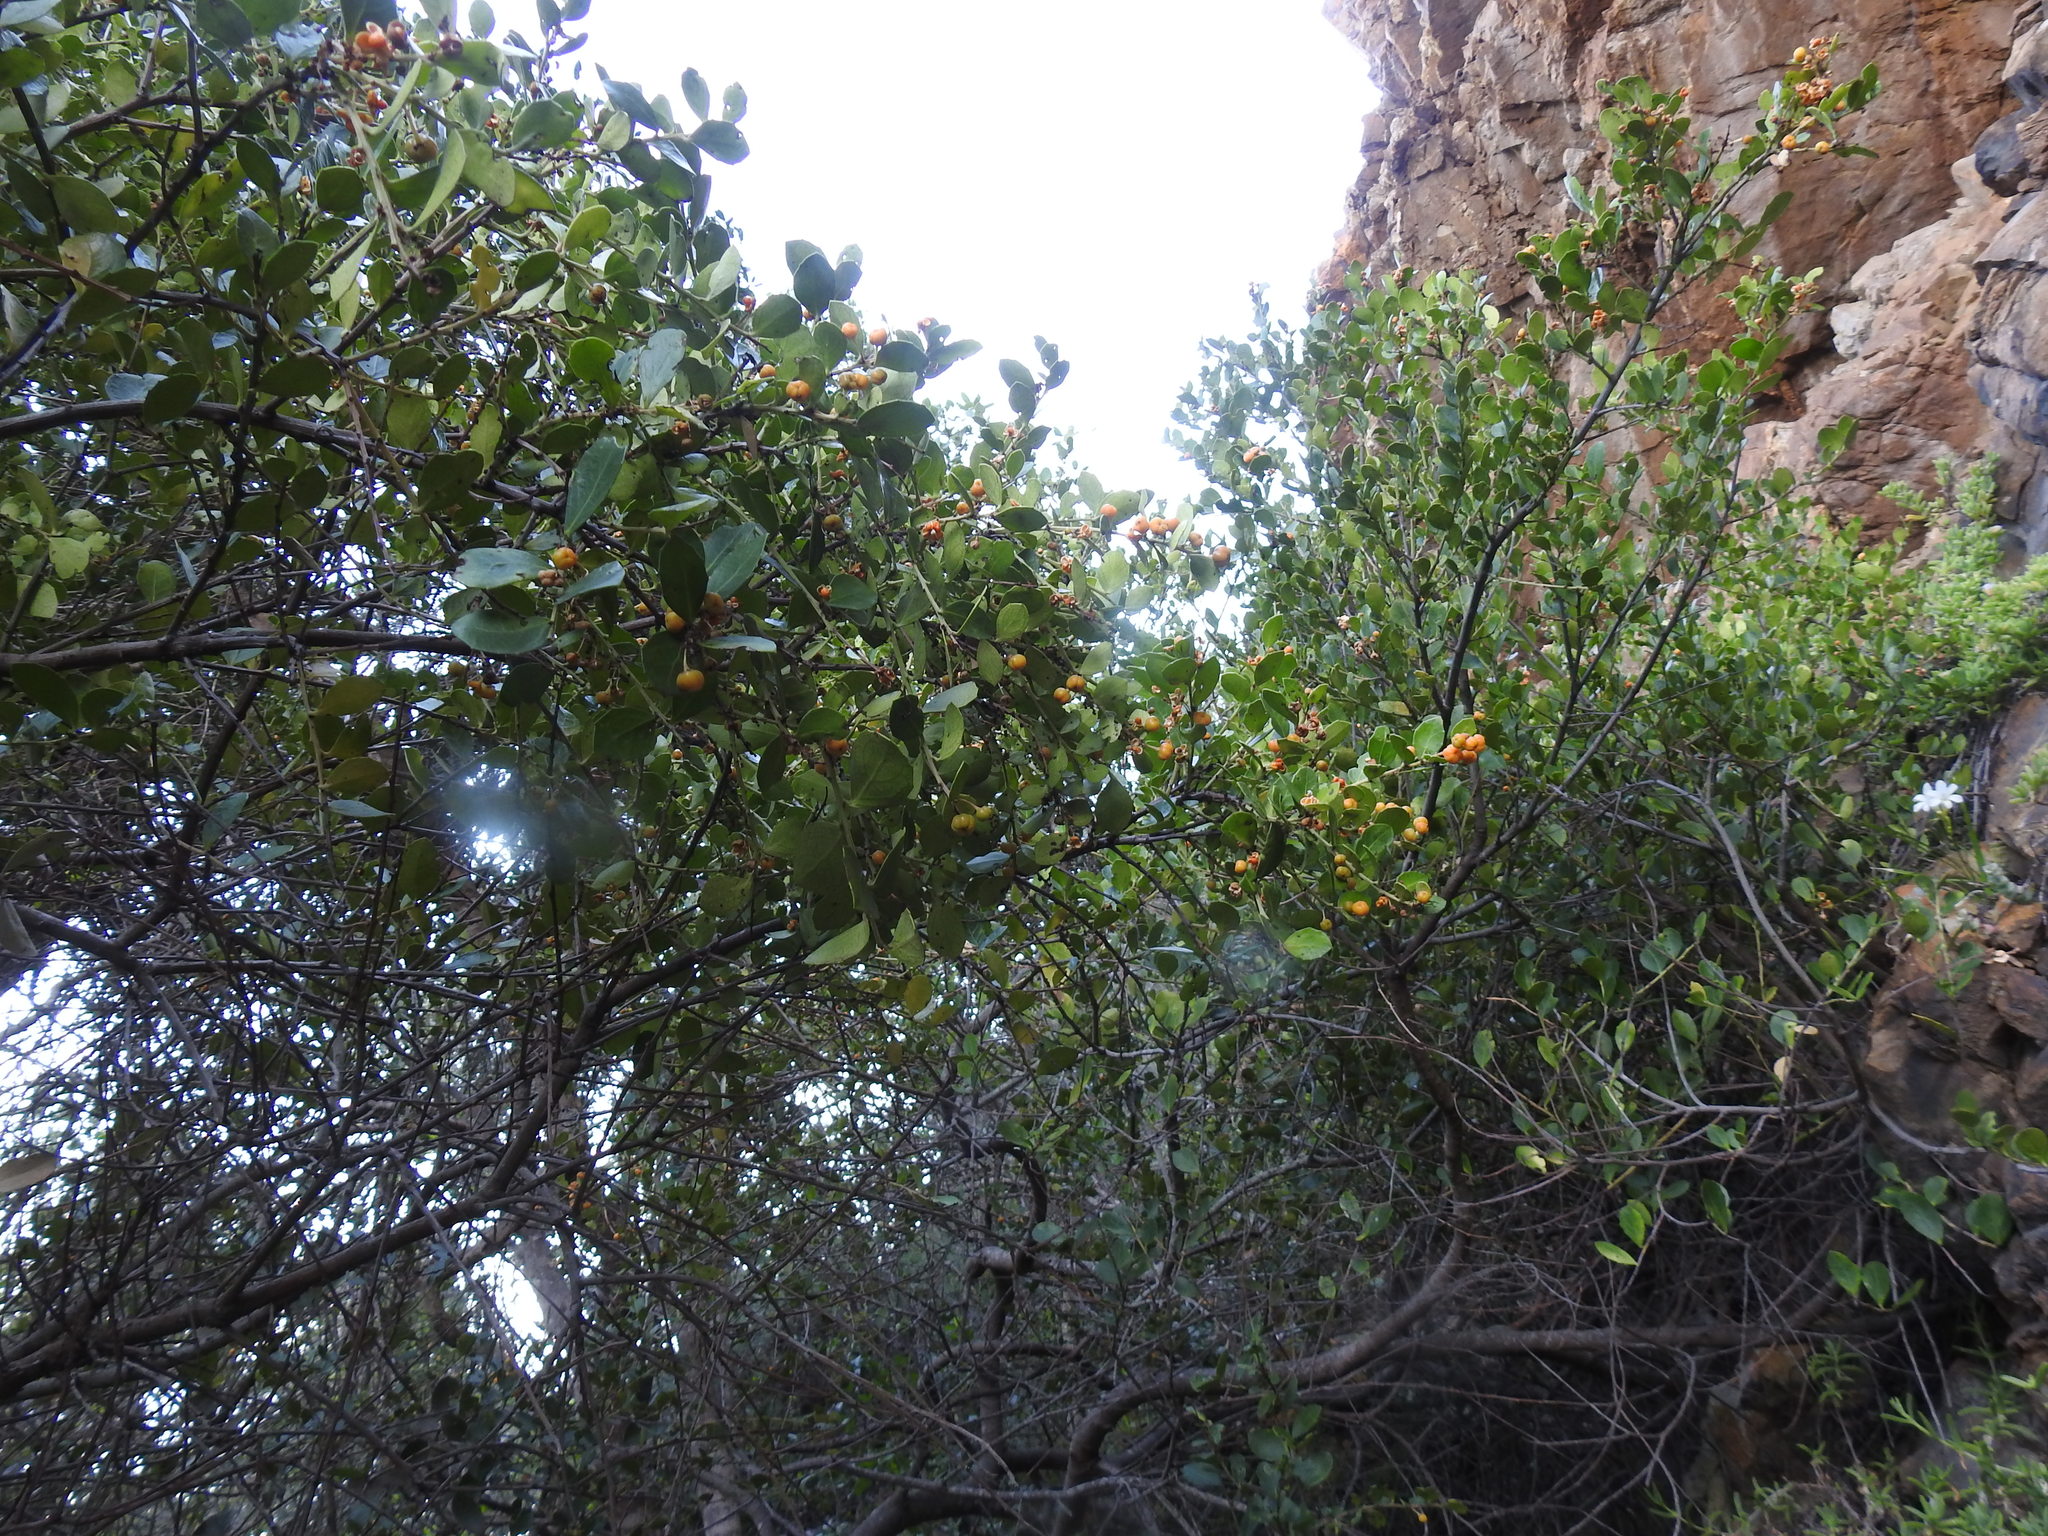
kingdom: Plantae
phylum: Tracheophyta
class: Magnoliopsida
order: Celastrales
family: Celastraceae
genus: Gymnosporia
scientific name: Gymnosporia procumbens
